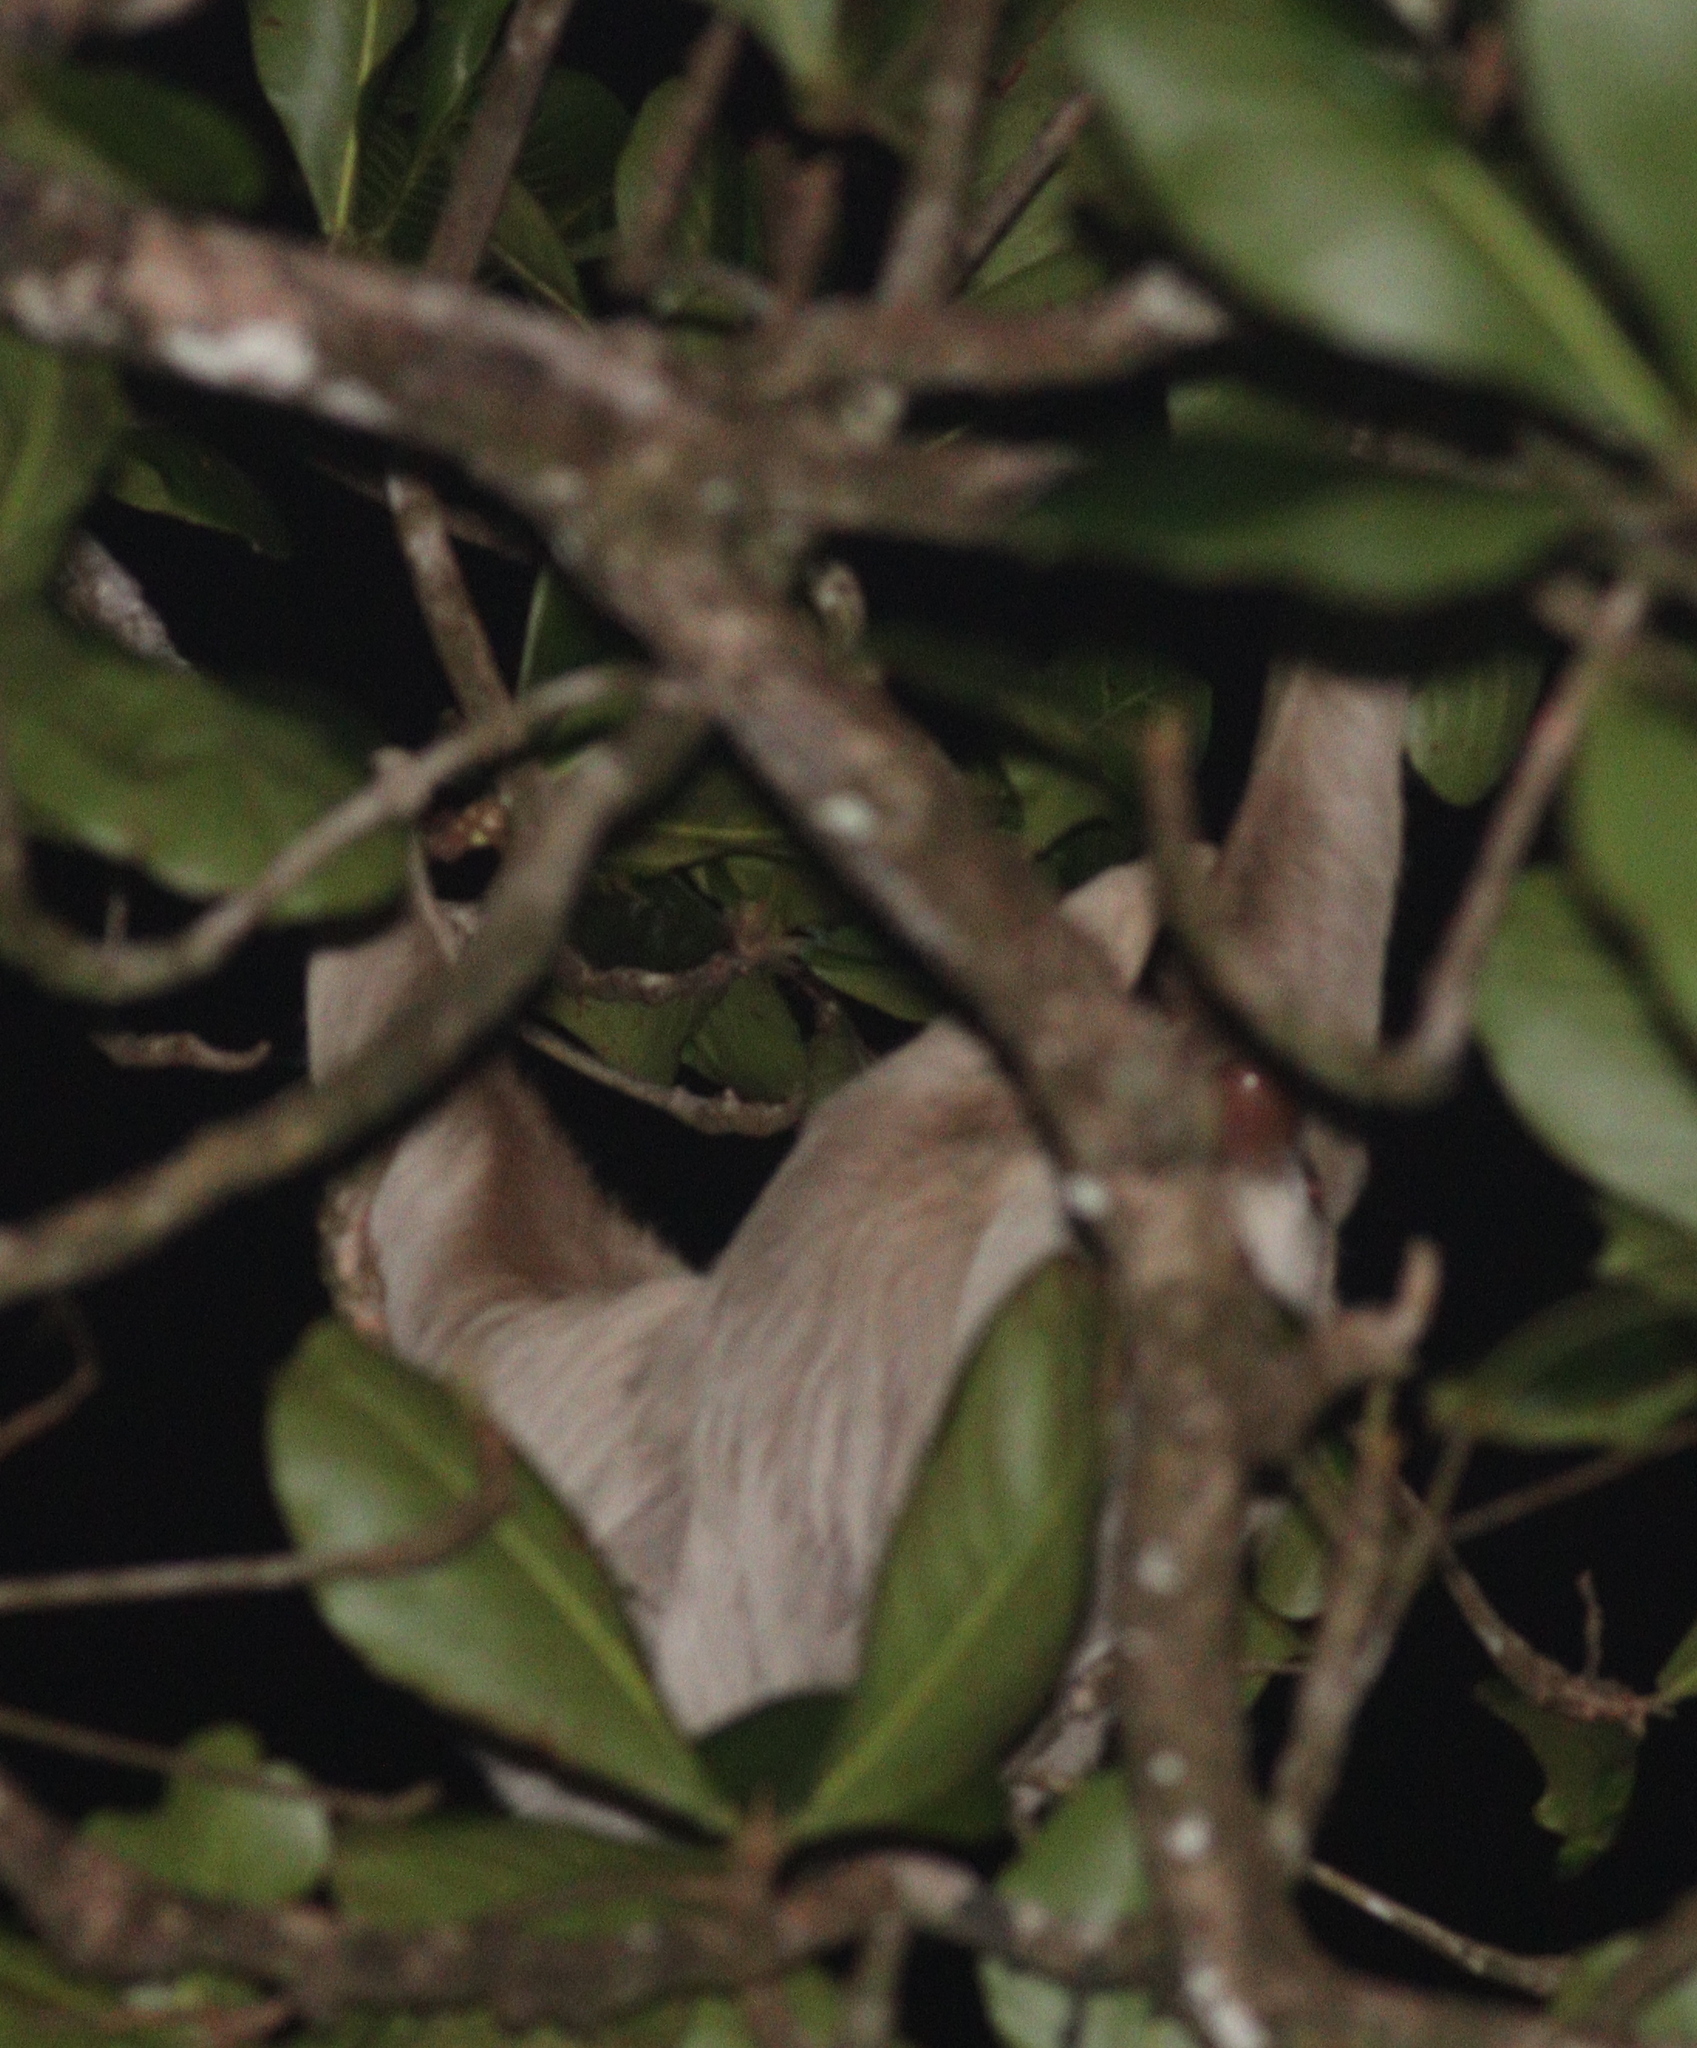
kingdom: Animalia
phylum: Chordata
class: Mammalia
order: Pilosa
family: Megalonychidae
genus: Choloepus
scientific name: Choloepus hoffmanni
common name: Hoffmann's two-toed sloth
